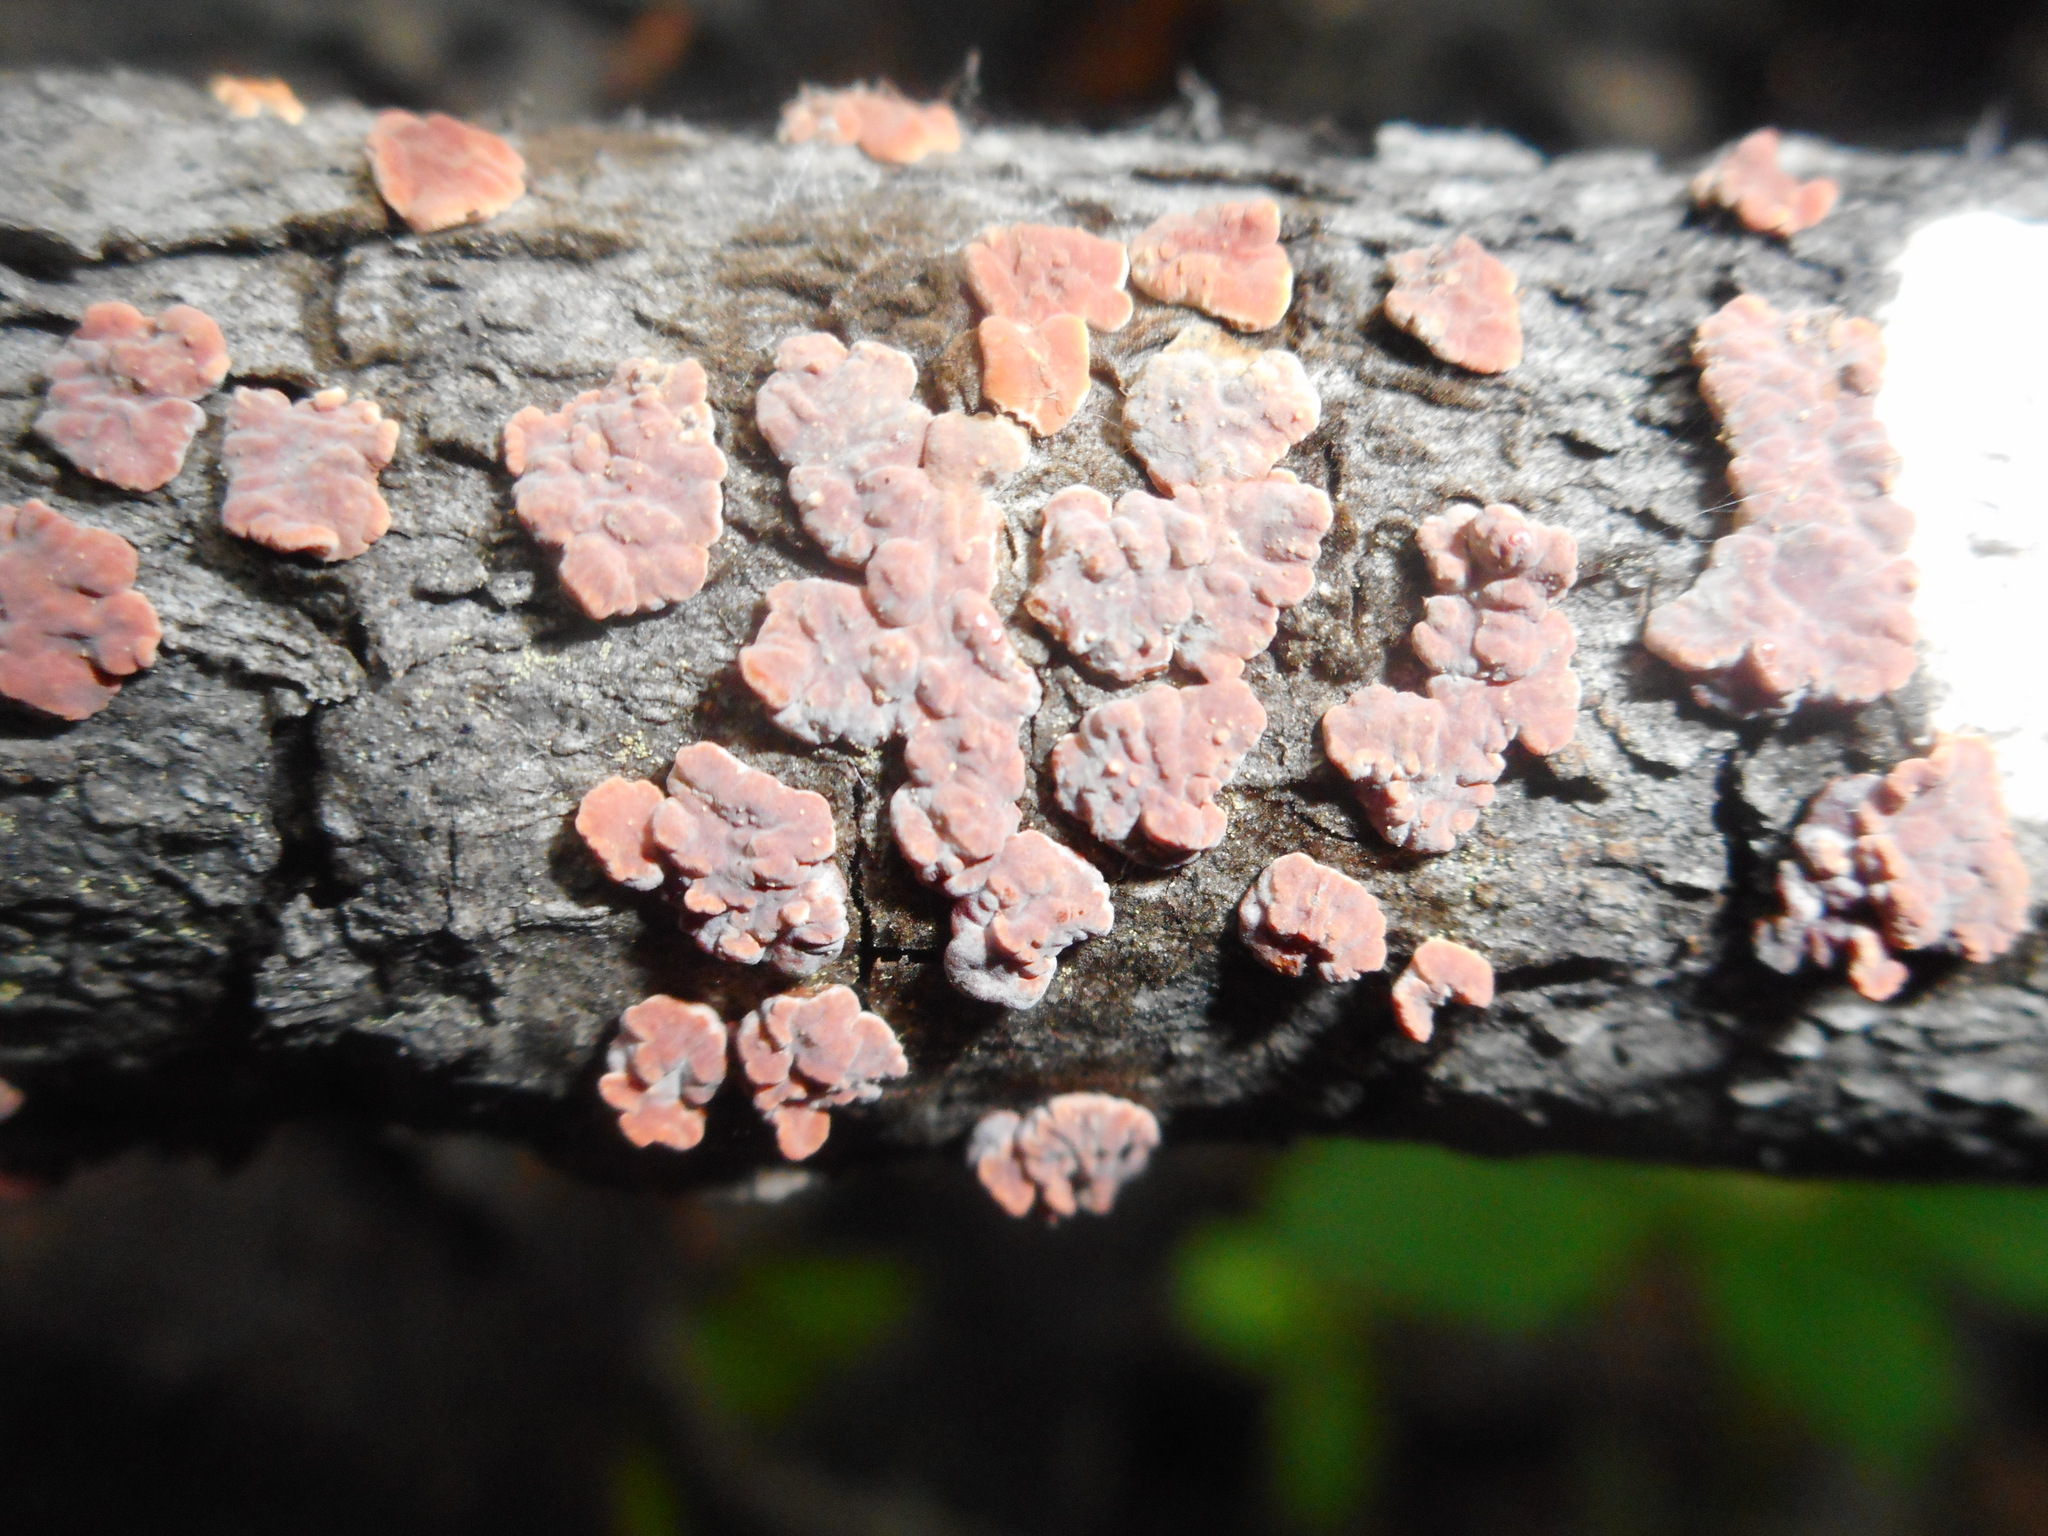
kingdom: Fungi
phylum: Basidiomycota
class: Agaricomycetes
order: Russulales
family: Peniophoraceae
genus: Peniophora
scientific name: Peniophora rufa
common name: Red tree brain fungus
